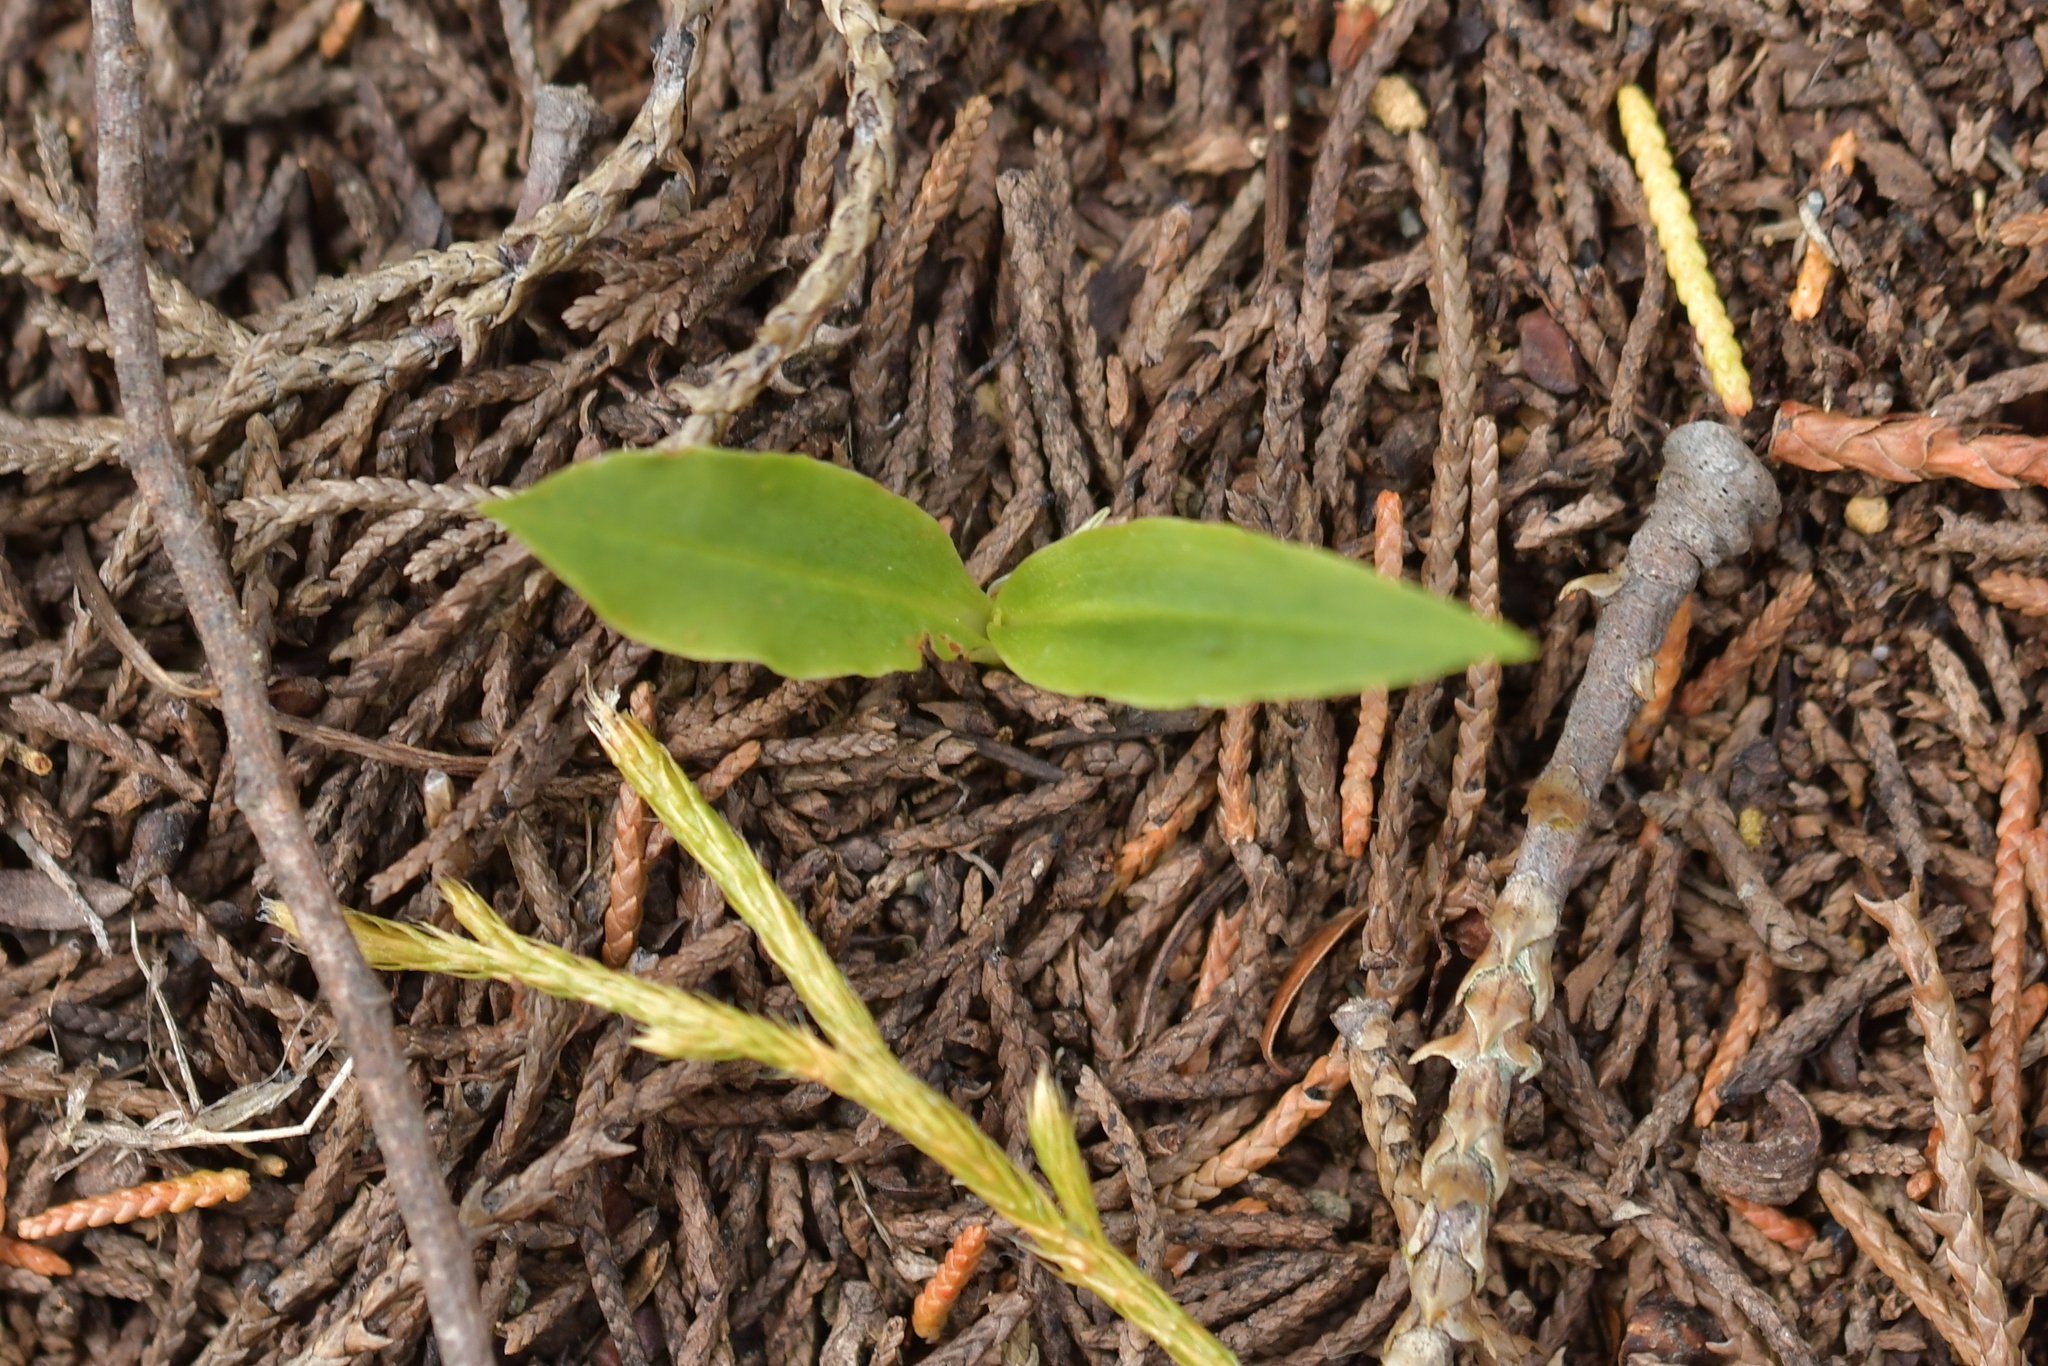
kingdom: Plantae
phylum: Tracheophyta
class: Liliopsida
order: Asparagales
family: Orchidaceae
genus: Chiloglottis
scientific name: Chiloglottis cornuta
